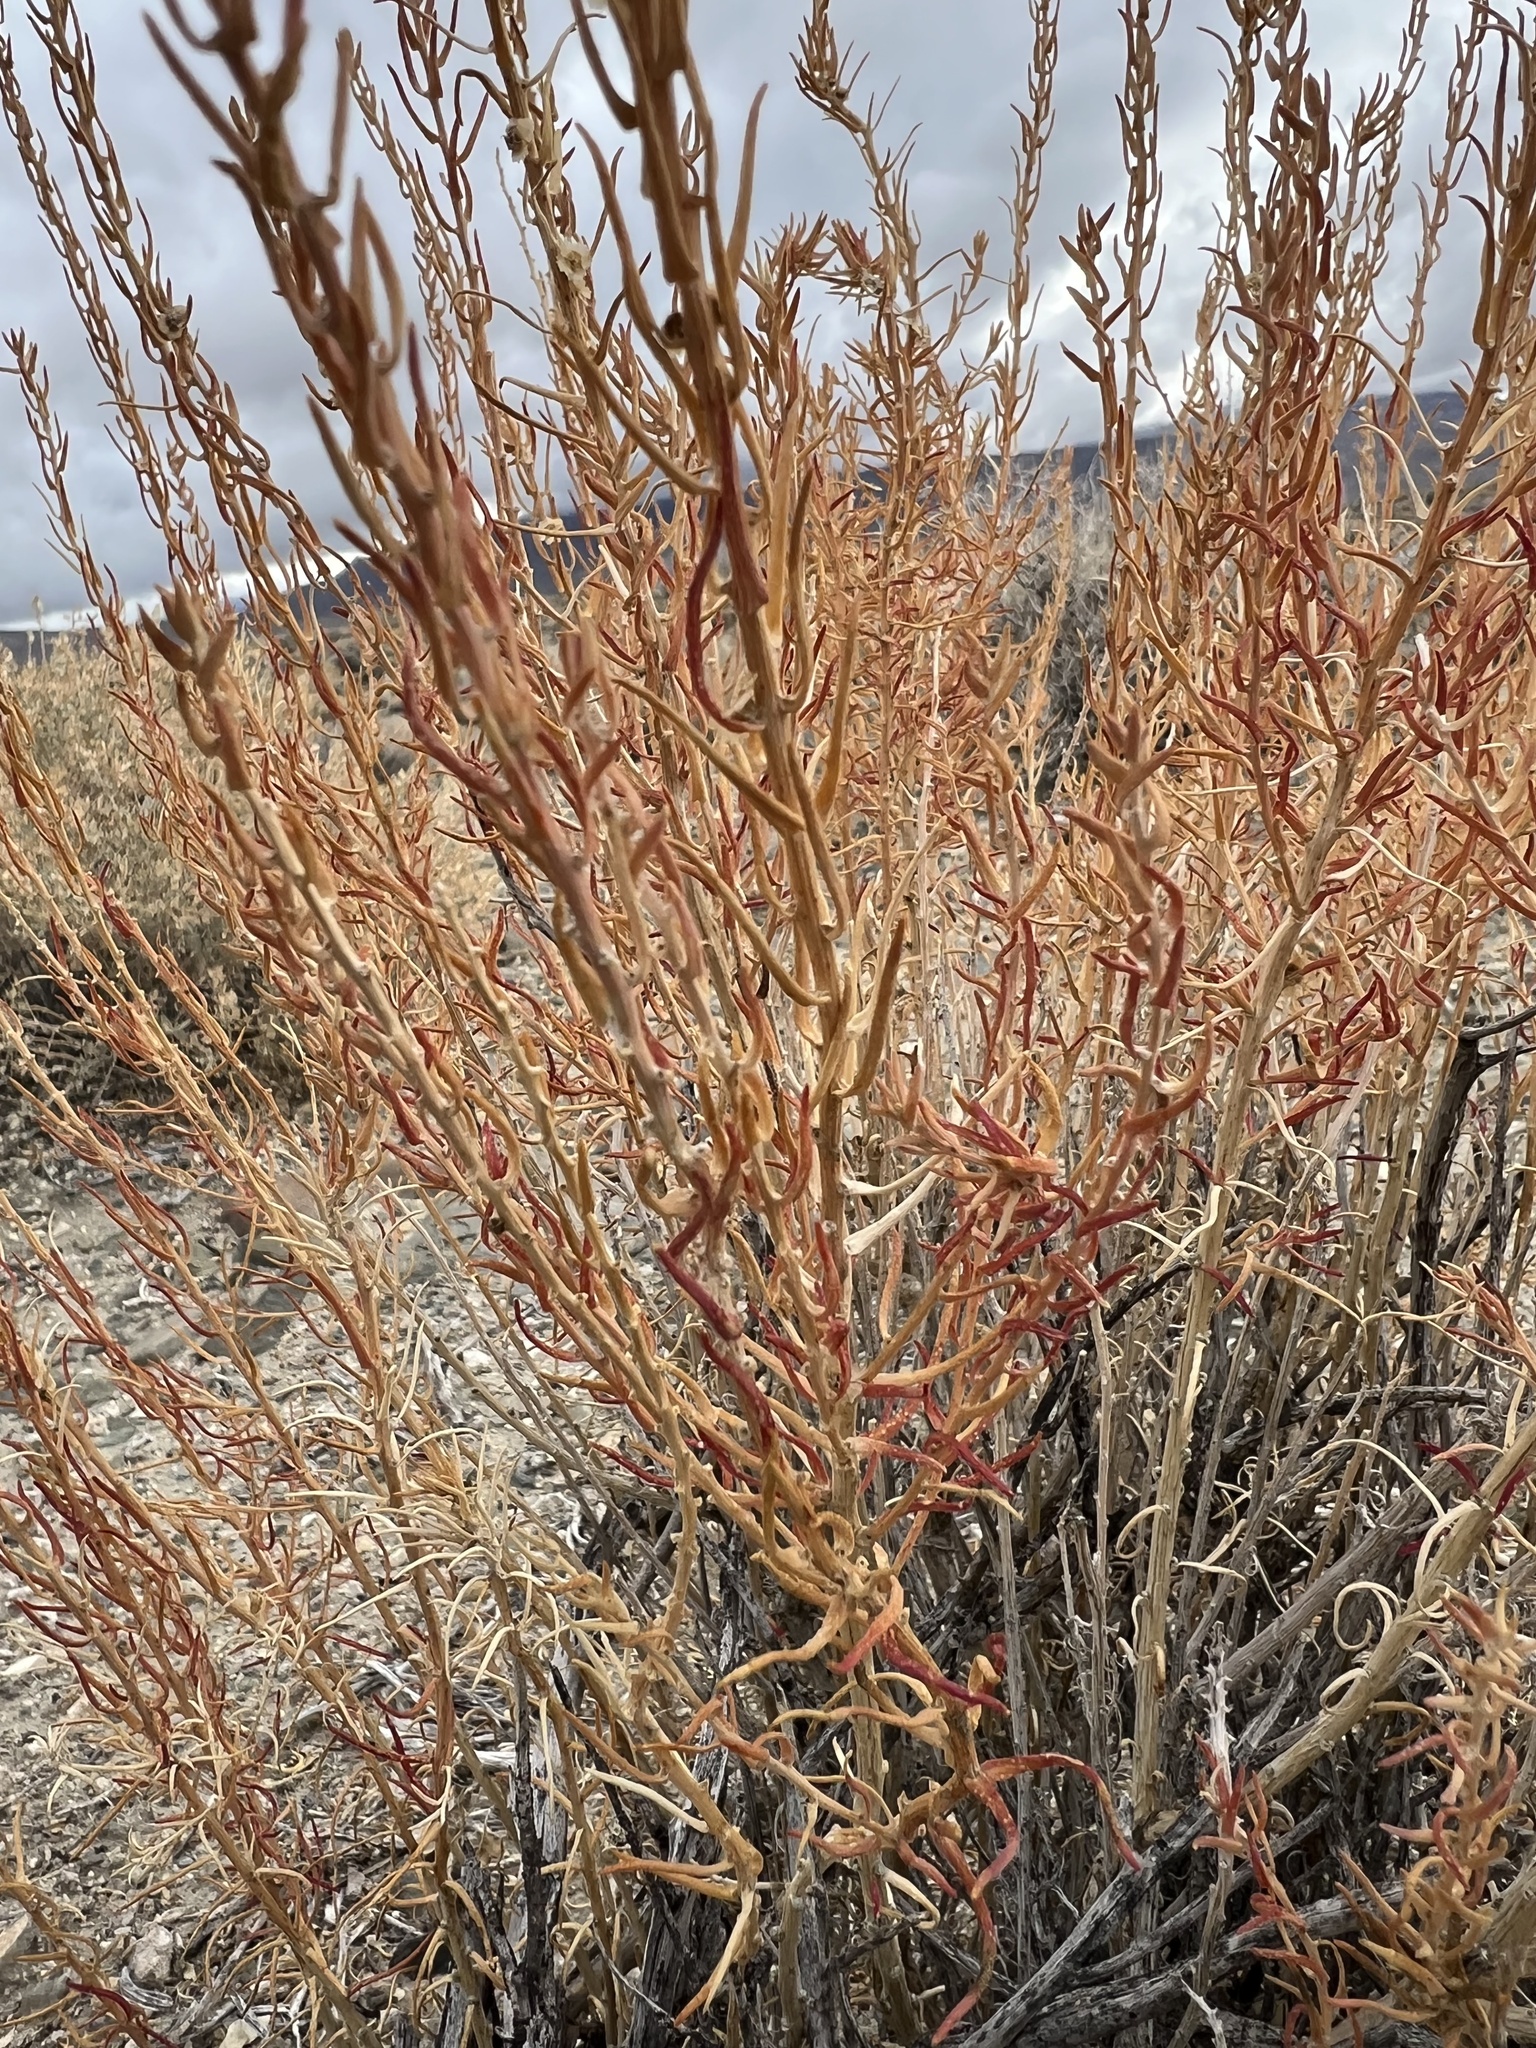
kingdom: Plantae
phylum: Tracheophyta
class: Magnoliopsida
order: Caryophyllales
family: Amaranthaceae
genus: Neokochia
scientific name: Neokochia americana
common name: Perennial summer-cypress
